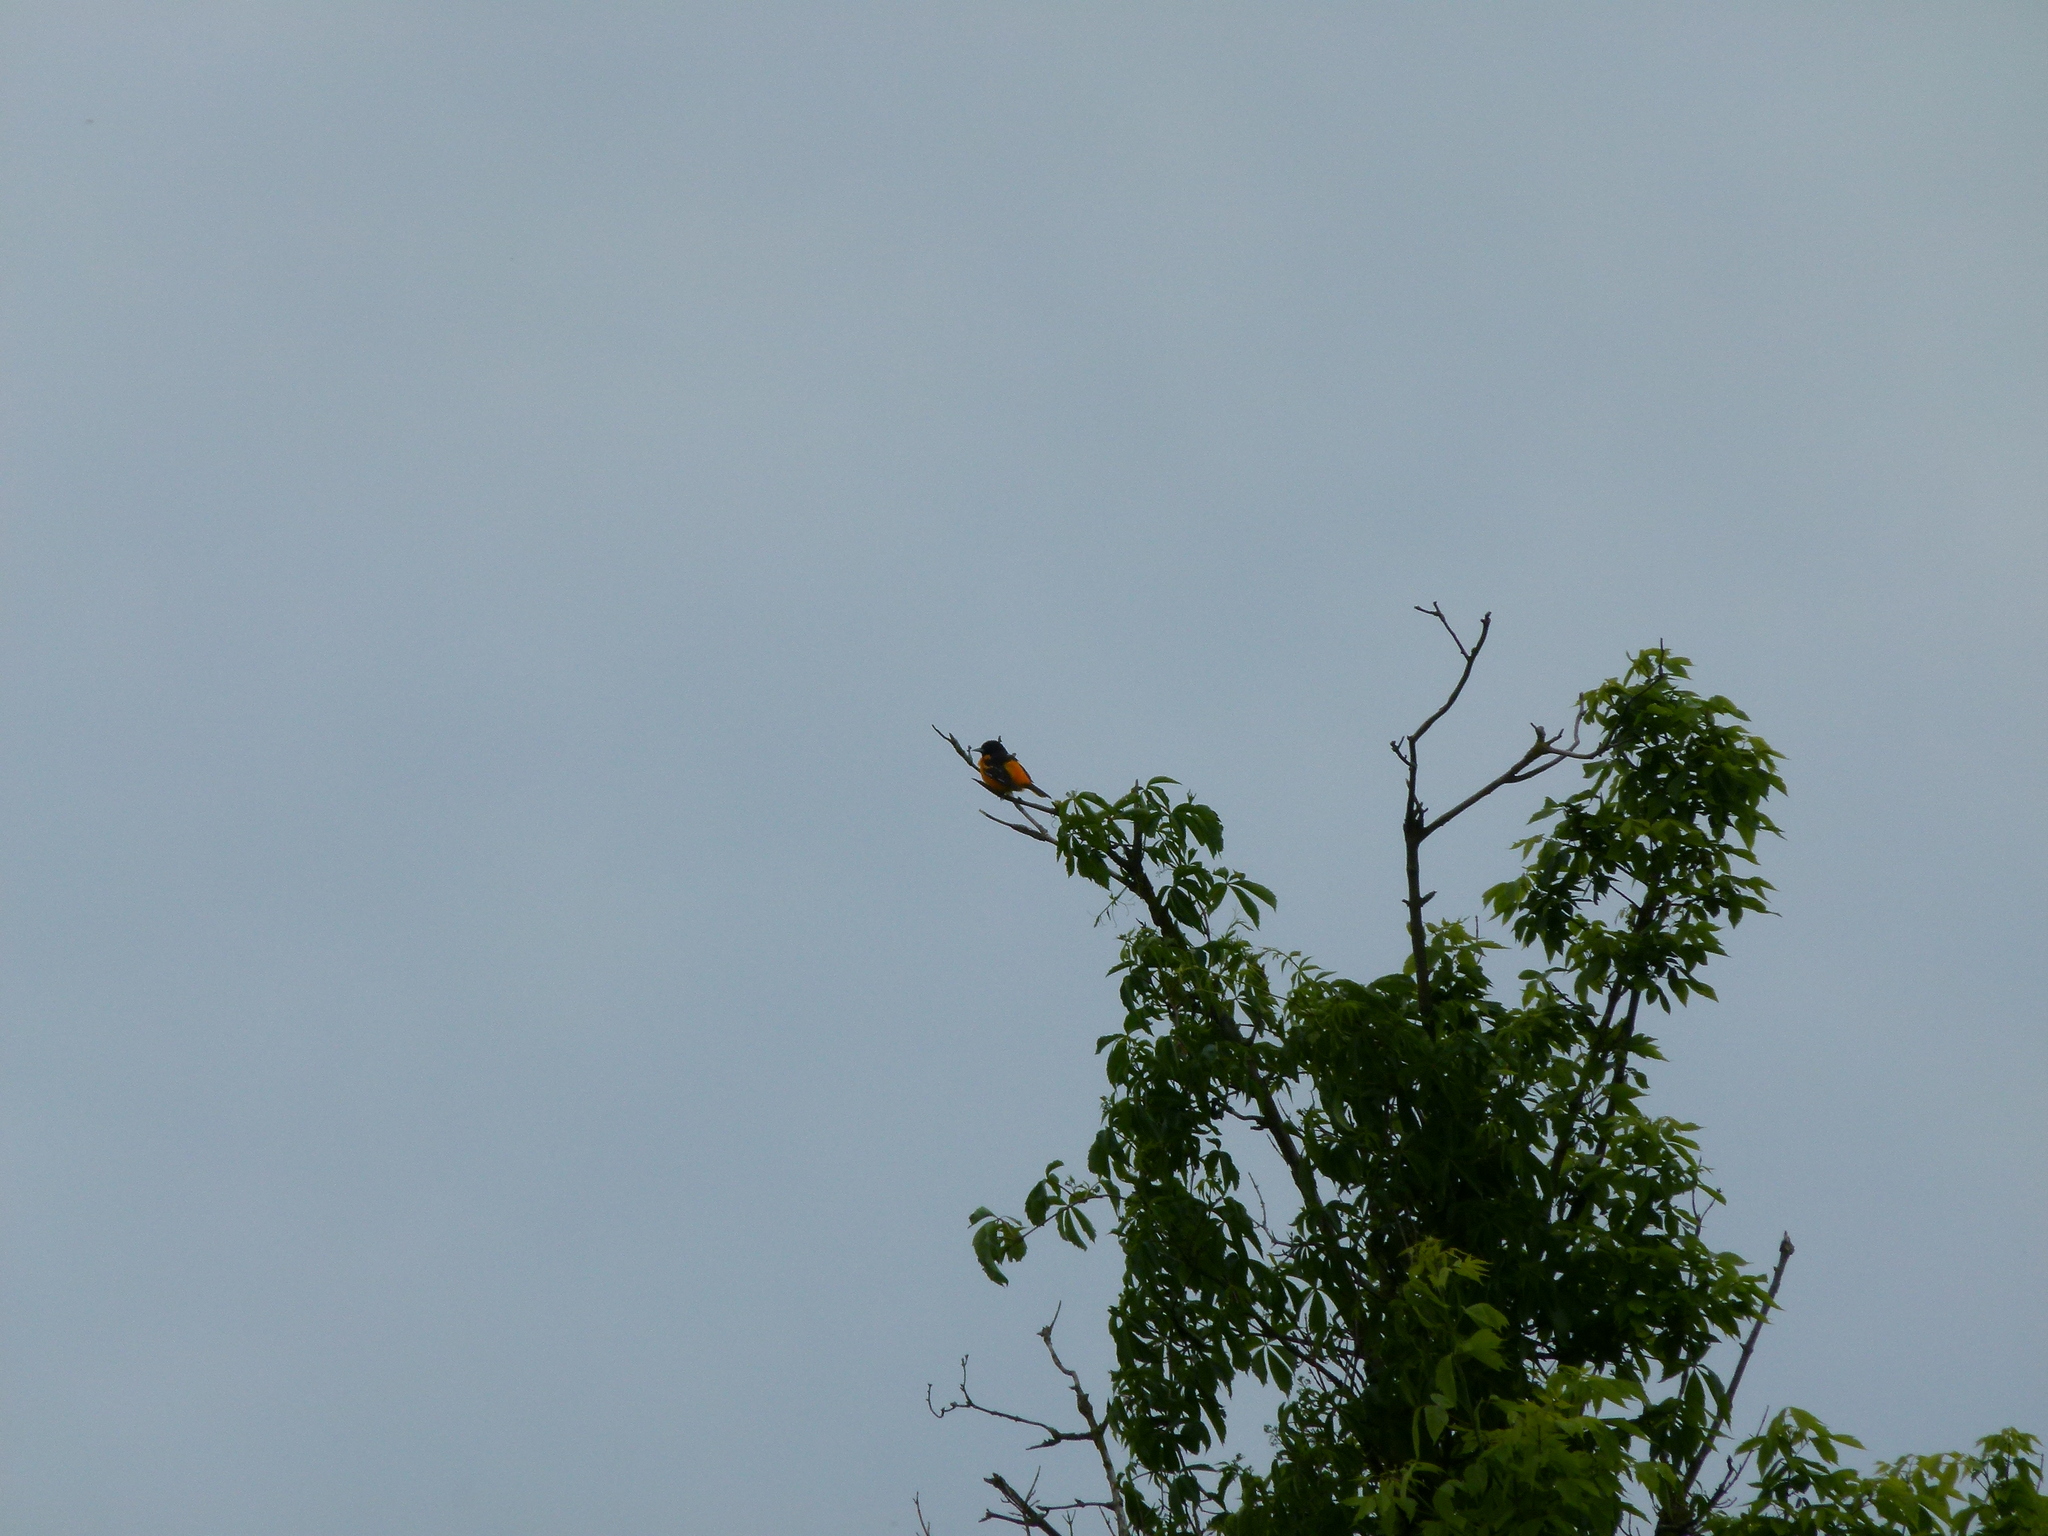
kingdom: Animalia
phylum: Chordata
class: Aves
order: Passeriformes
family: Icteridae
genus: Icterus
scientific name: Icterus galbula
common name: Baltimore oriole
